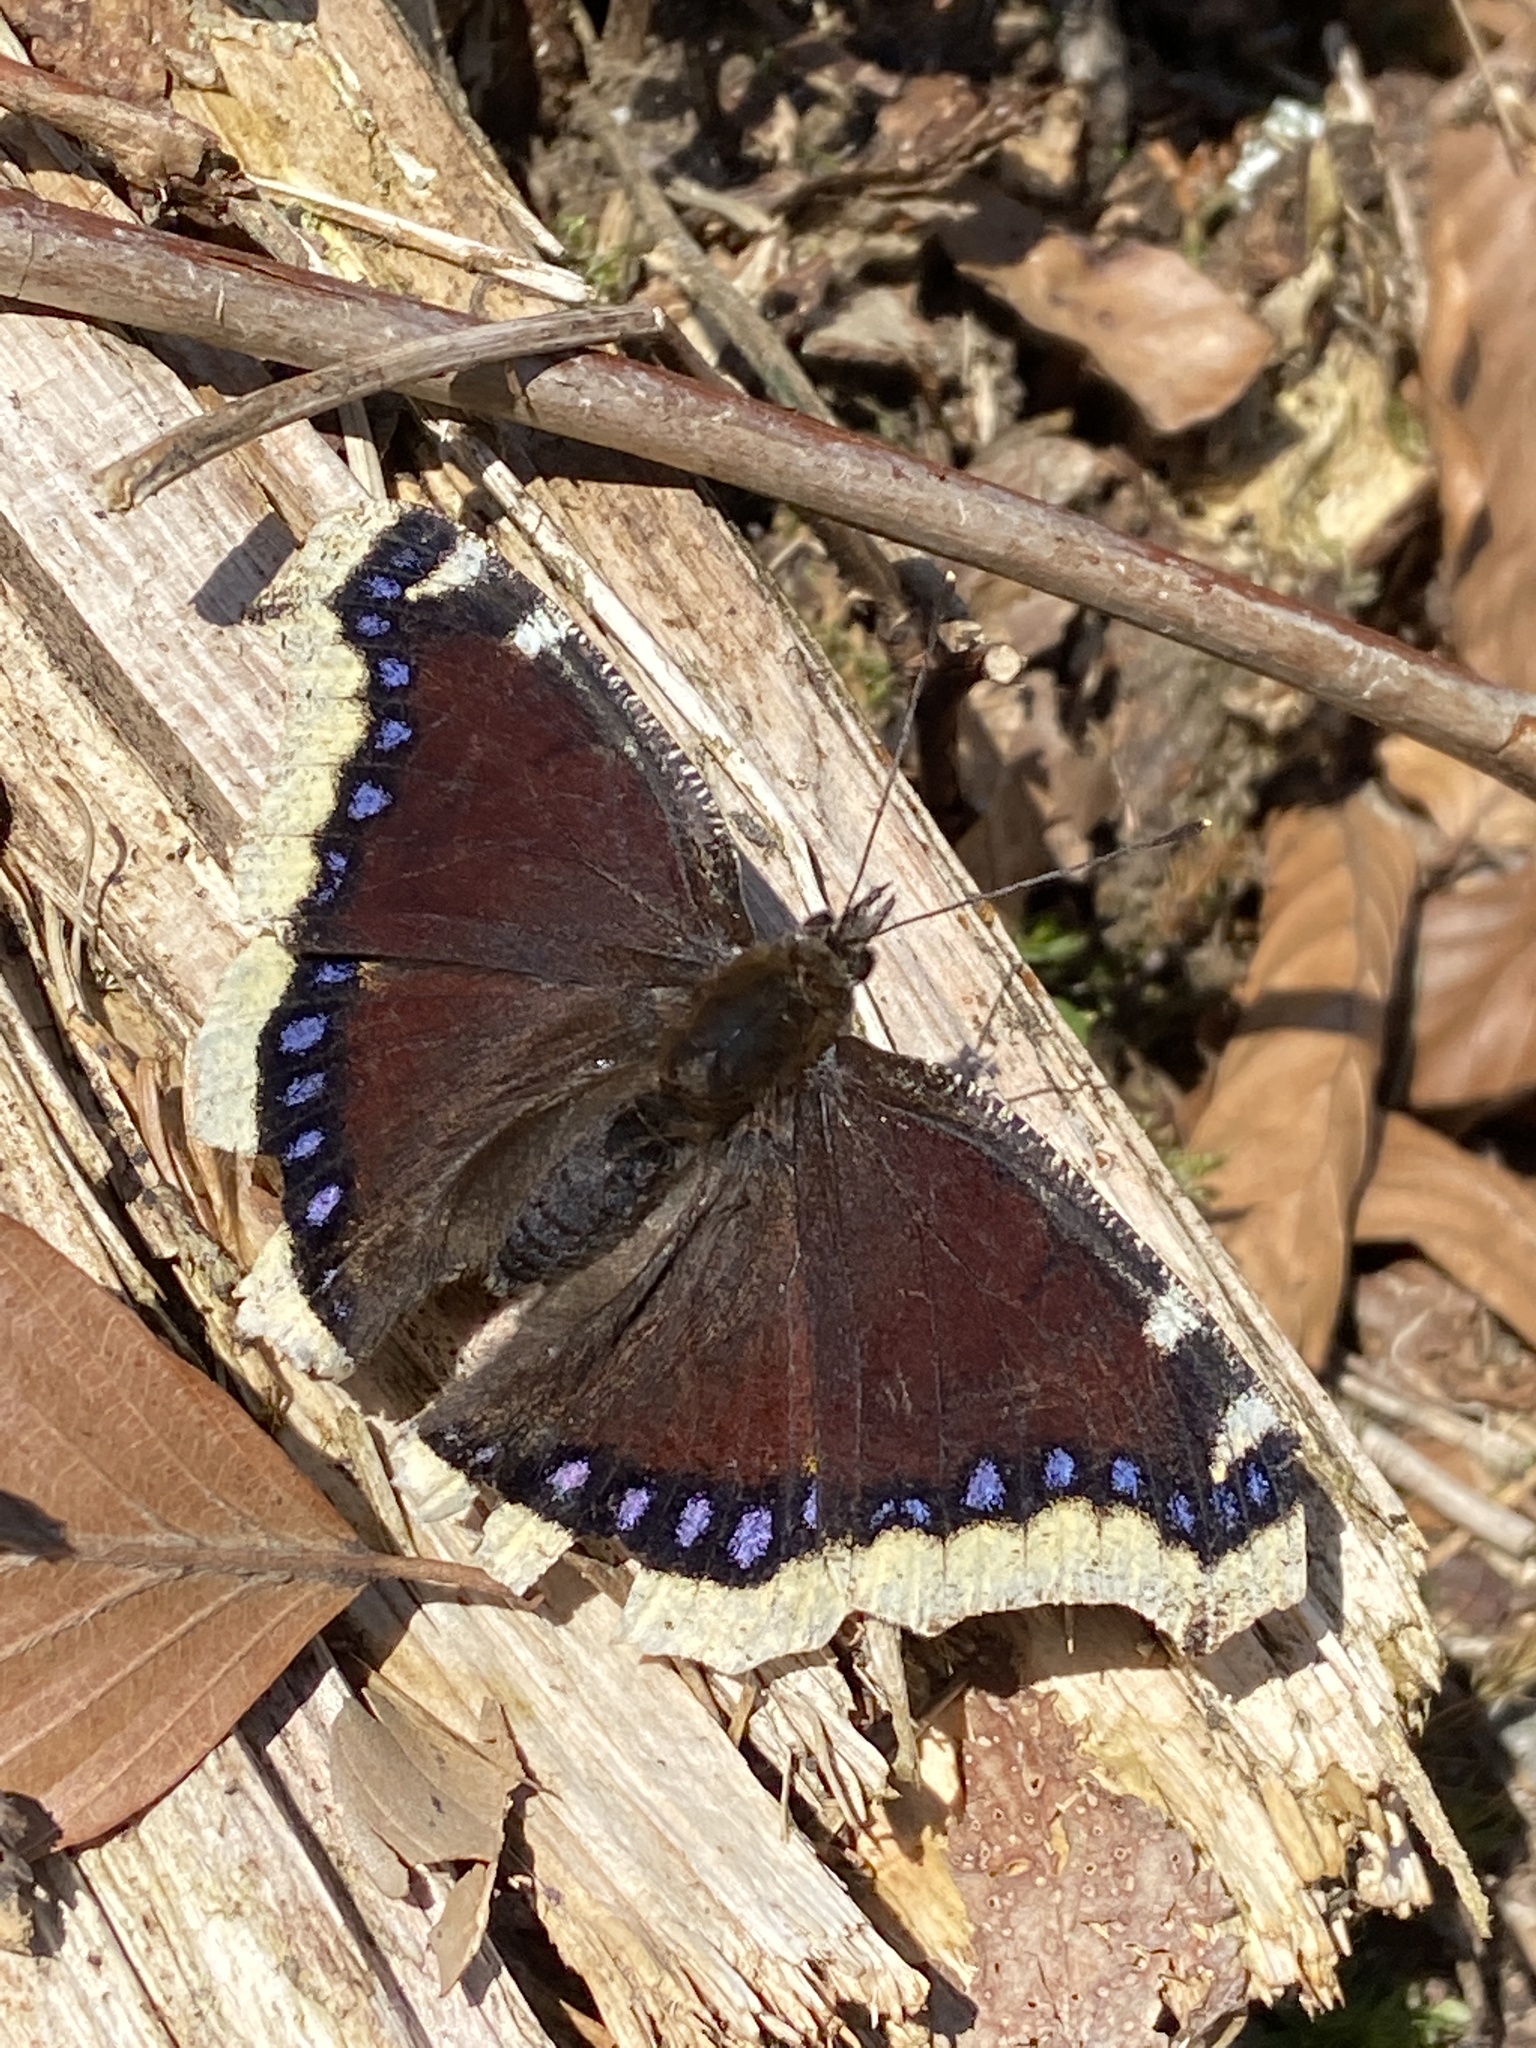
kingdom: Animalia
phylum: Arthropoda
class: Insecta
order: Lepidoptera
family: Nymphalidae
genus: Nymphalis
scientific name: Nymphalis antiopa
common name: Camberwell beauty
